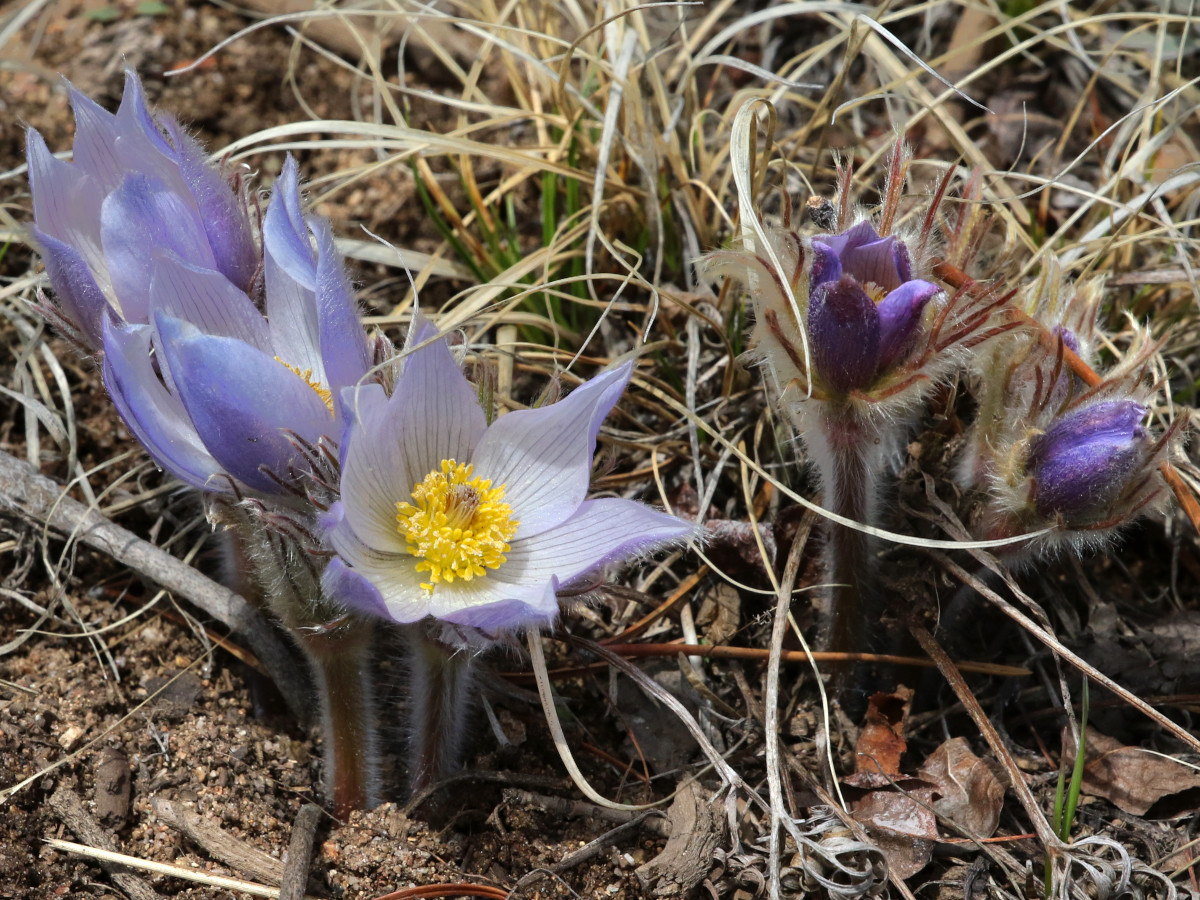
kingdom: Plantae
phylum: Tracheophyta
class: Magnoliopsida
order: Ranunculales
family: Ranunculaceae
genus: Pulsatilla
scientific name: Pulsatilla nuttalliana
